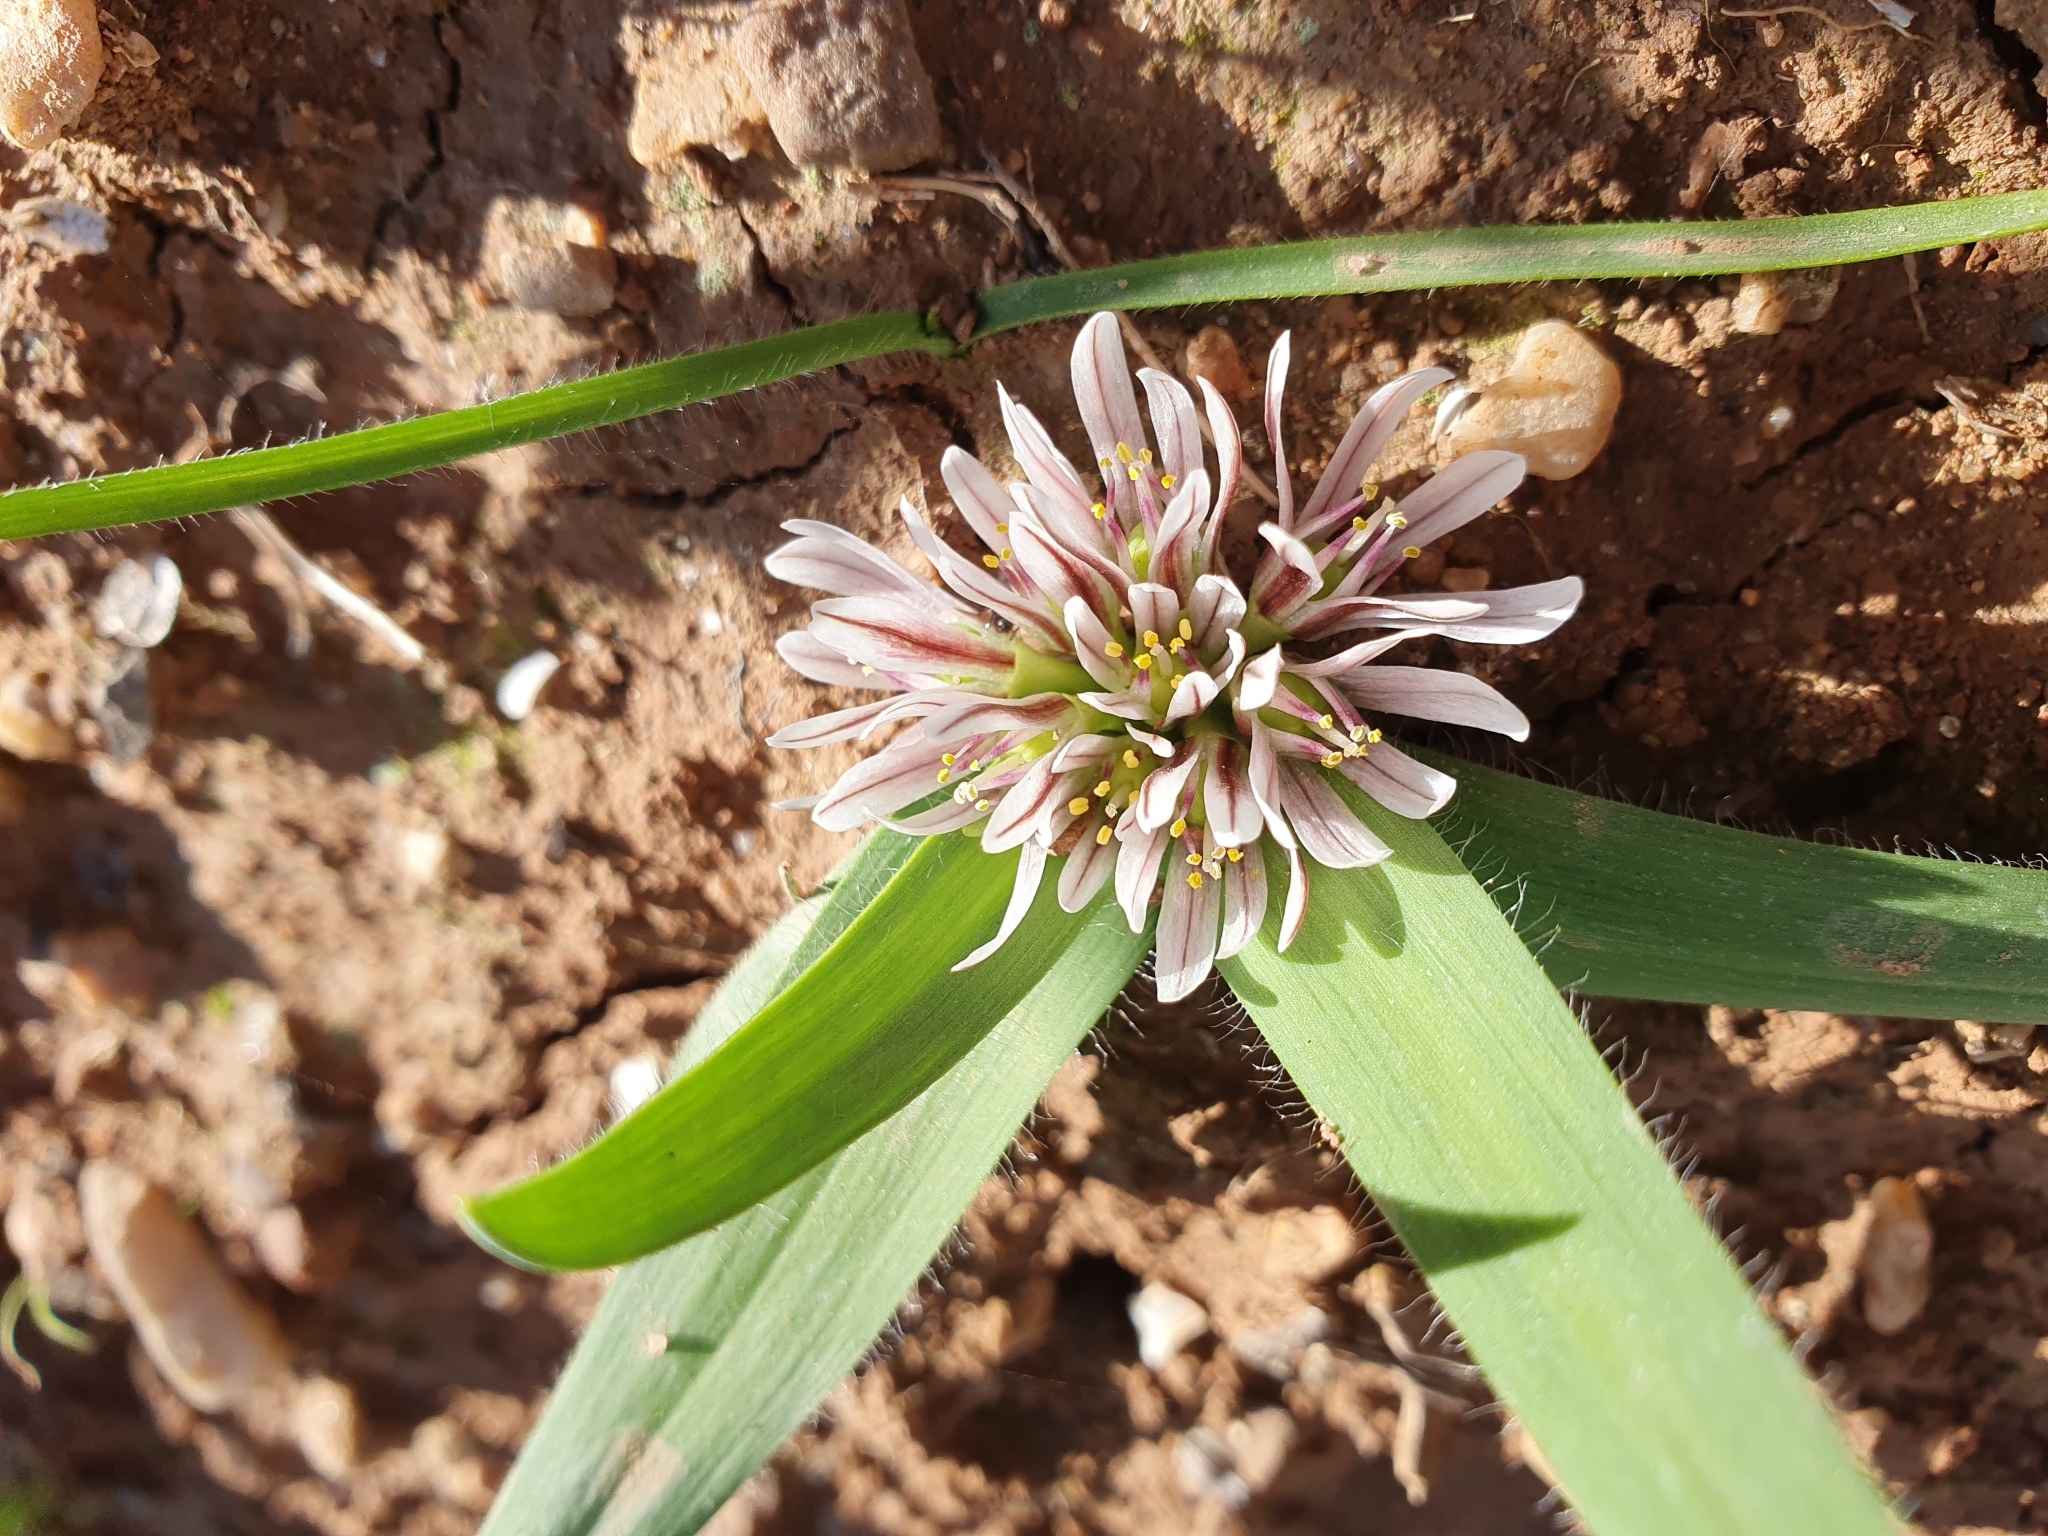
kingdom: Plantae
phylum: Tracheophyta
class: Liliopsida
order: Asparagales
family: Amaryllidaceae
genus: Allium
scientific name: Allium chamaemoly
